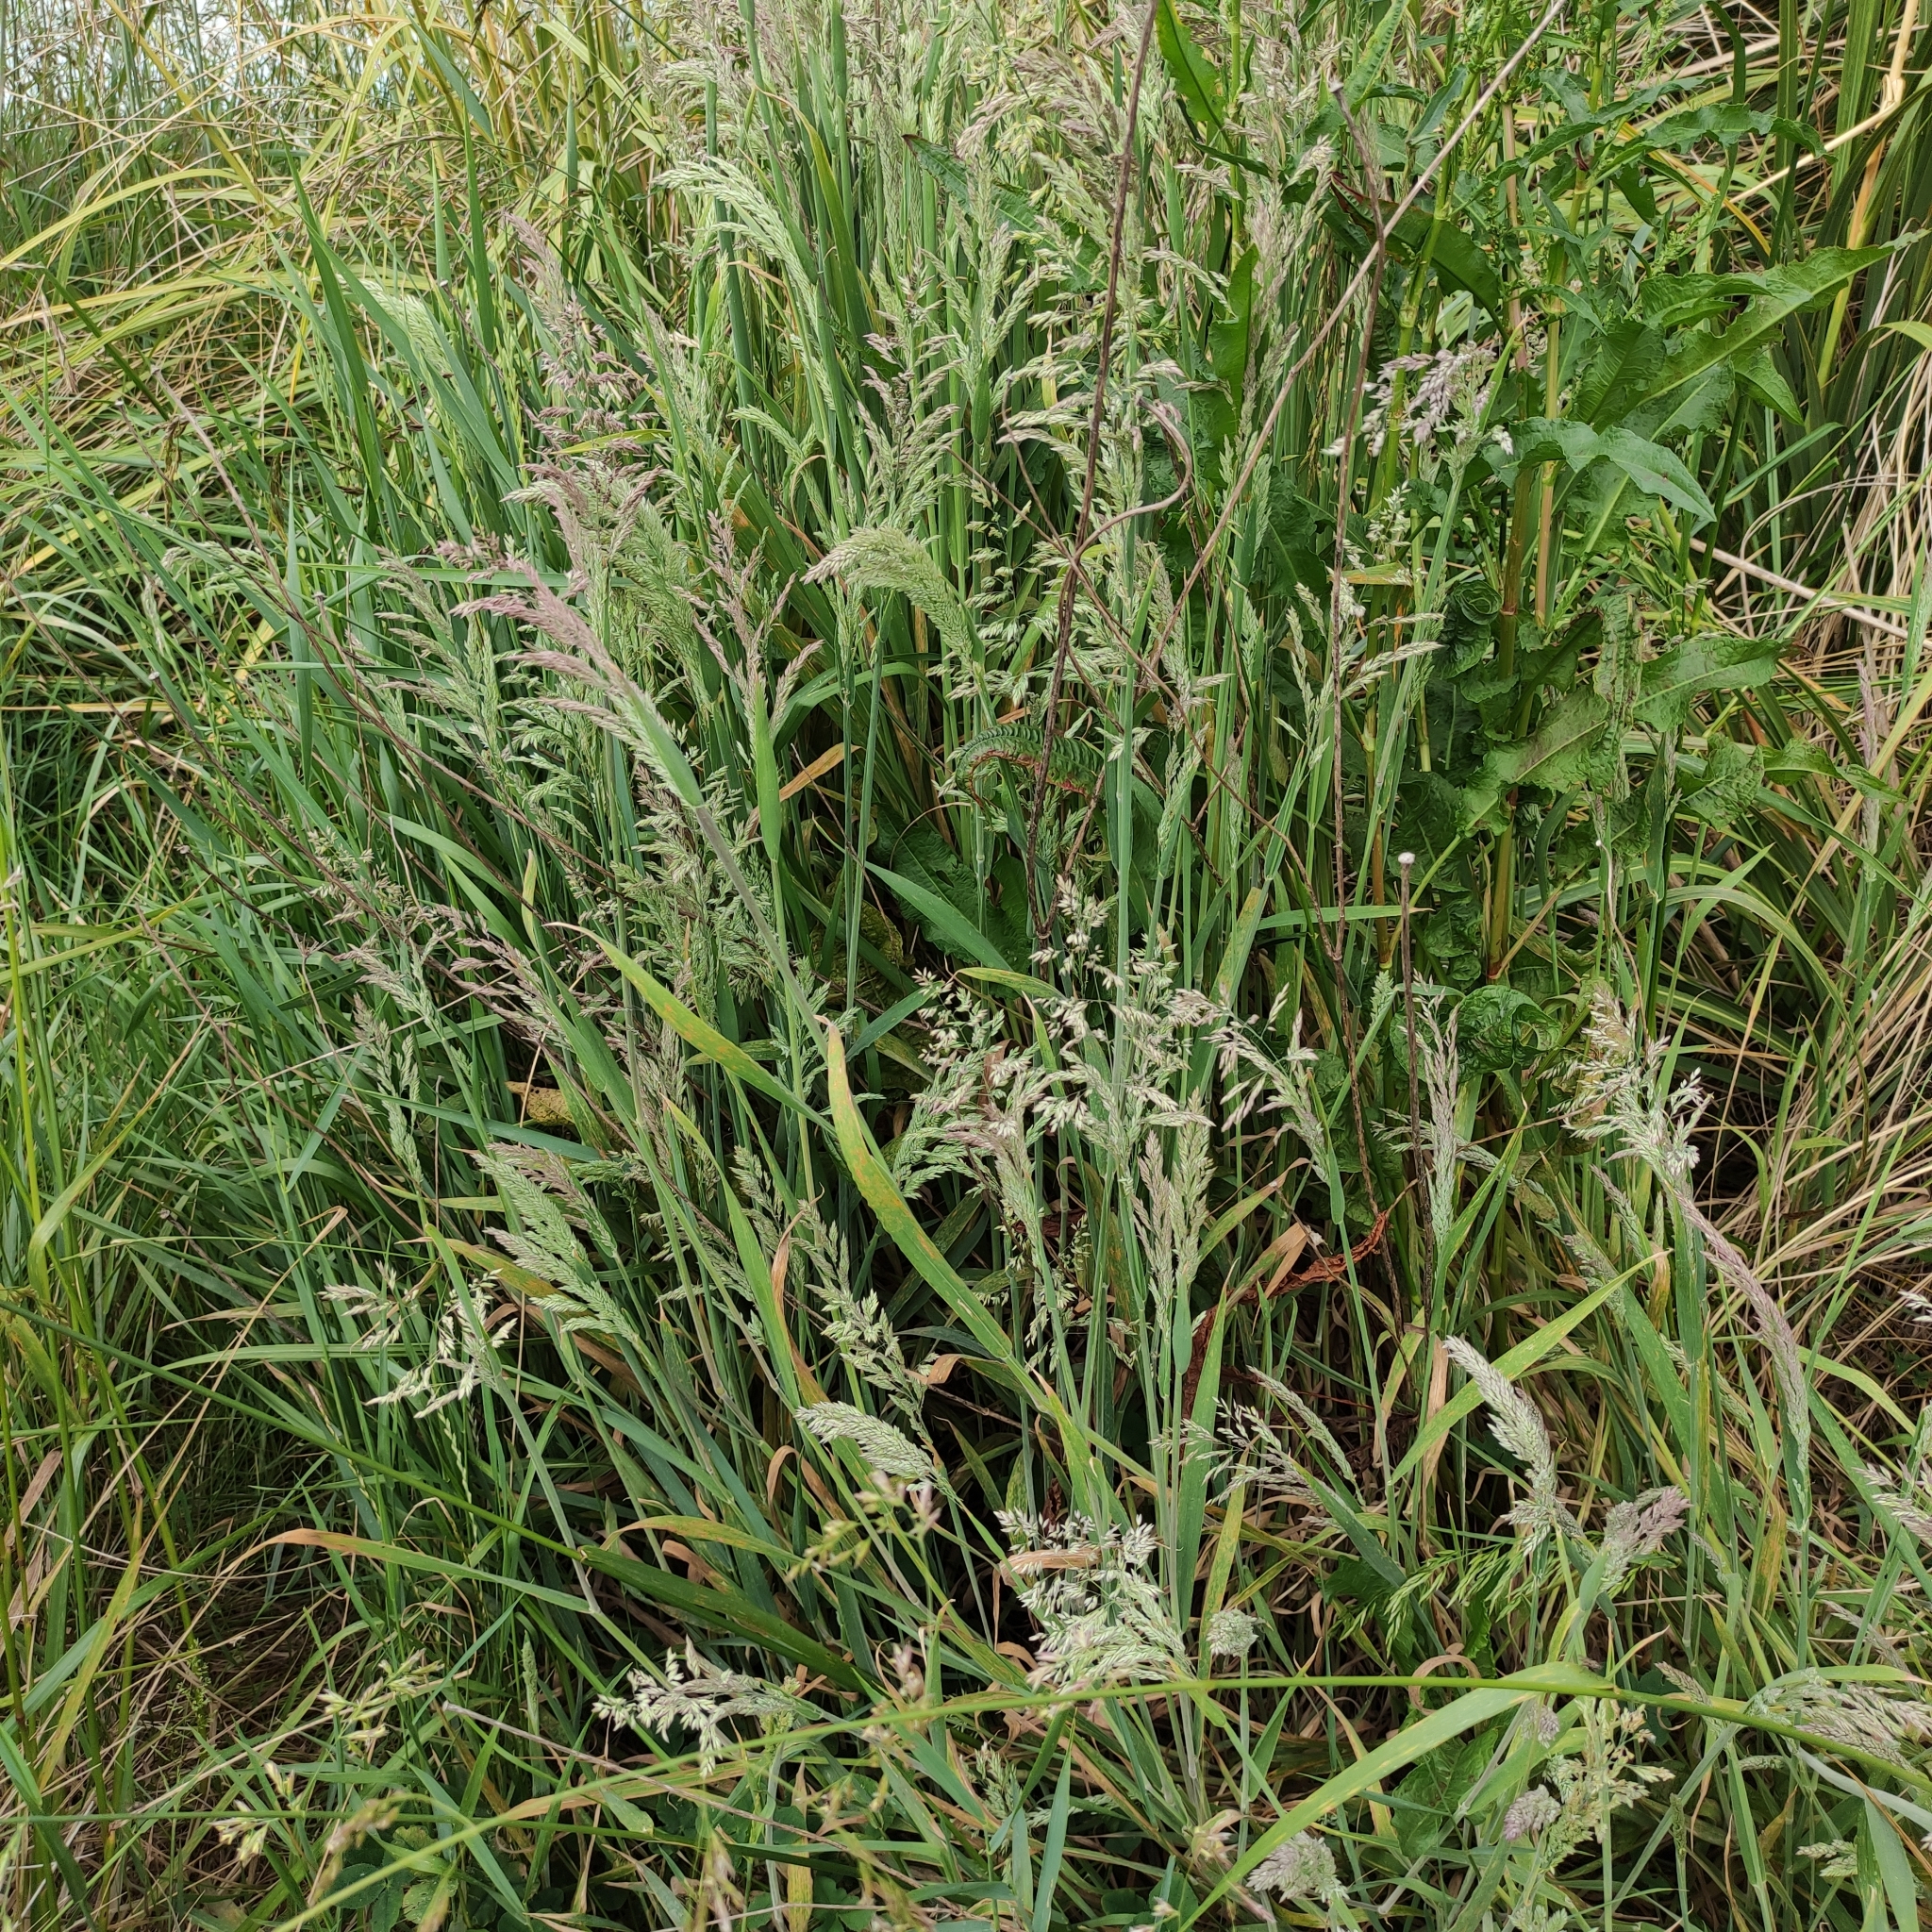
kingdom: Plantae
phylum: Tracheophyta
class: Liliopsida
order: Poales
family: Poaceae
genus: Holcus
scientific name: Holcus lanatus
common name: Yorkshire-fog
